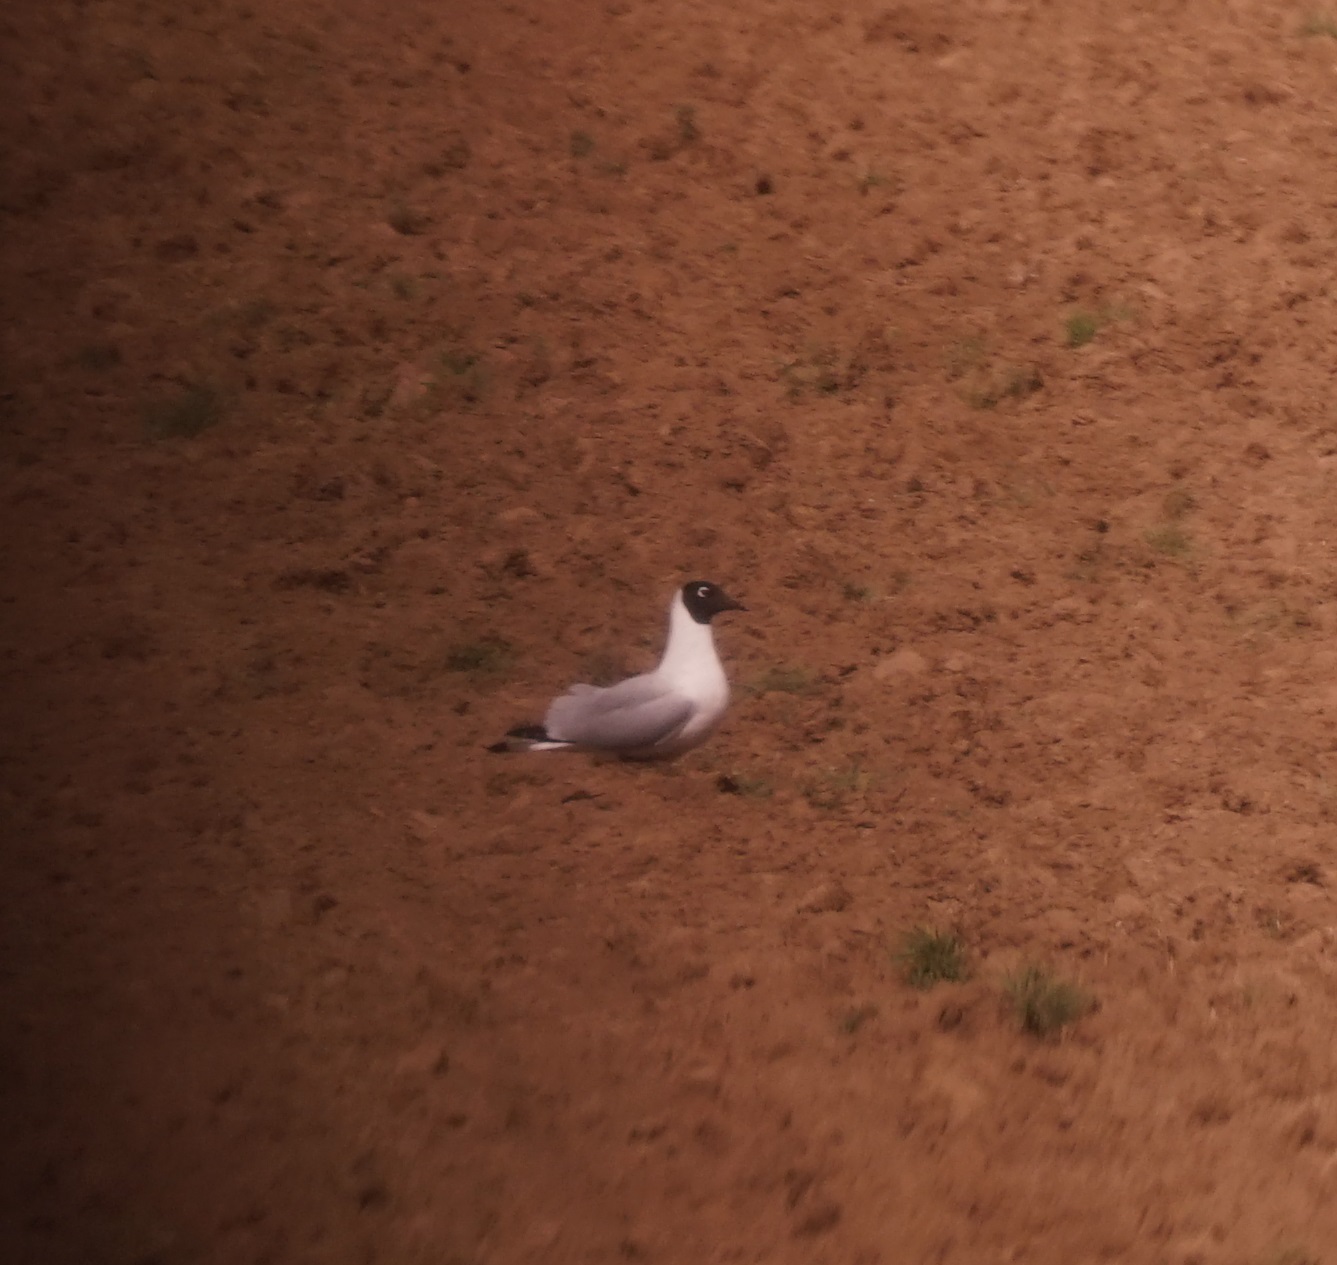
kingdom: Animalia
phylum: Chordata
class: Aves
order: Charadriiformes
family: Laridae
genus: Chroicocephalus
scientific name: Chroicocephalus serranus
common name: Andean gull
